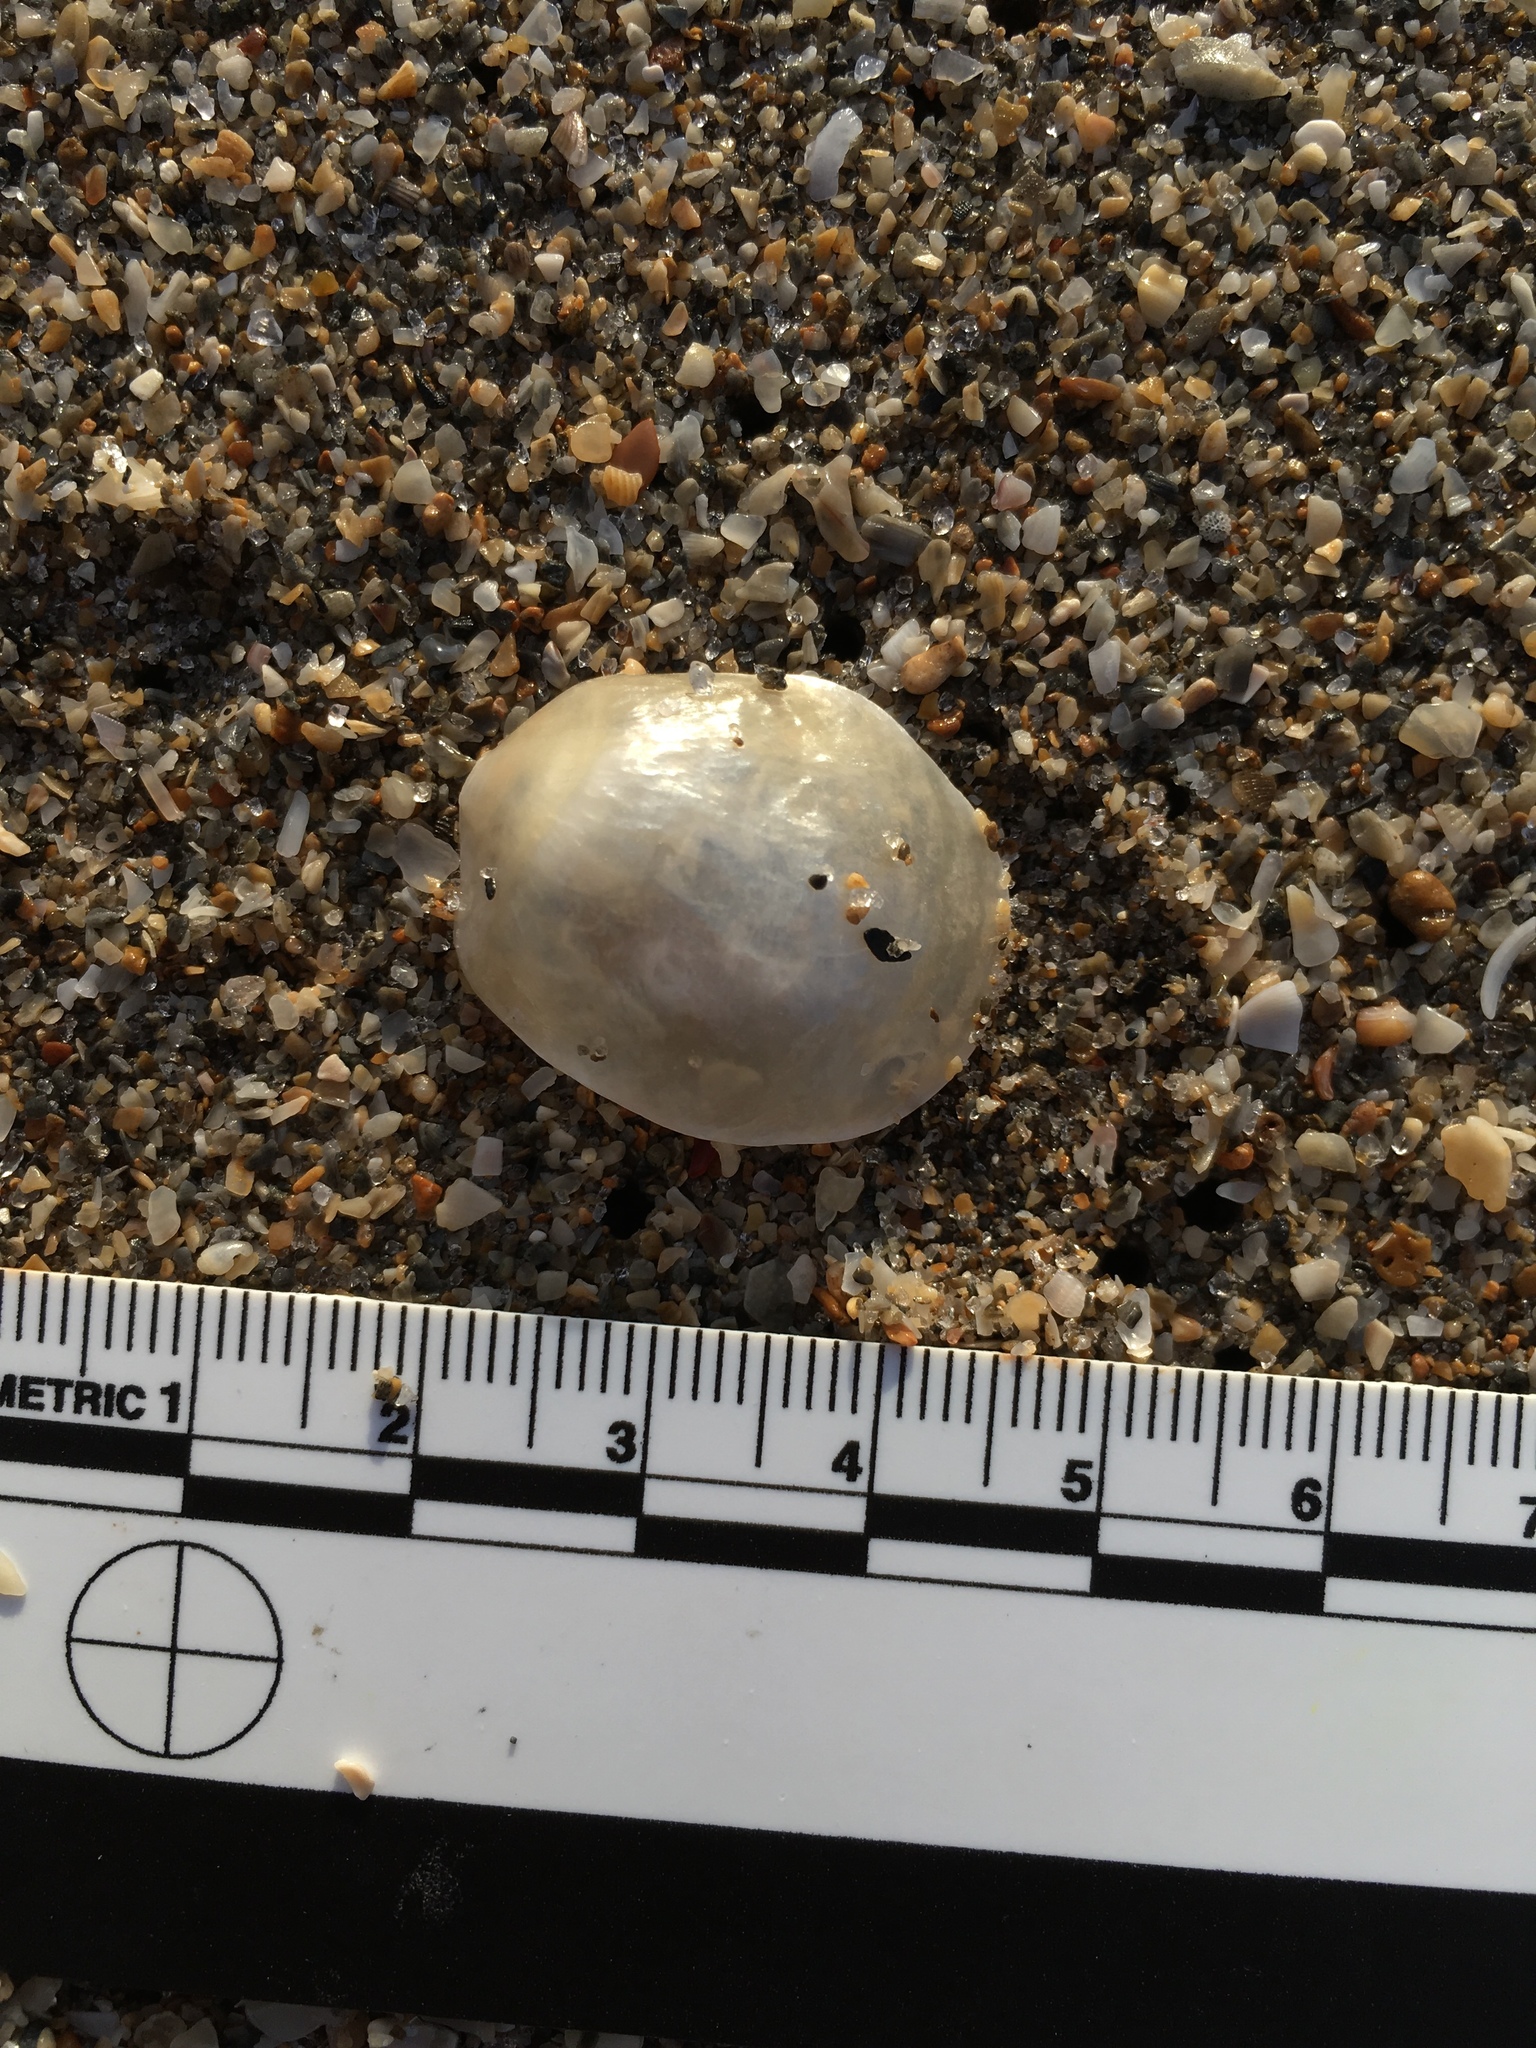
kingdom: Animalia
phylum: Mollusca
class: Bivalvia
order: Pectinida
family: Anomiidae
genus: Anomia
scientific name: Anomia simplex
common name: Common jingle shell
